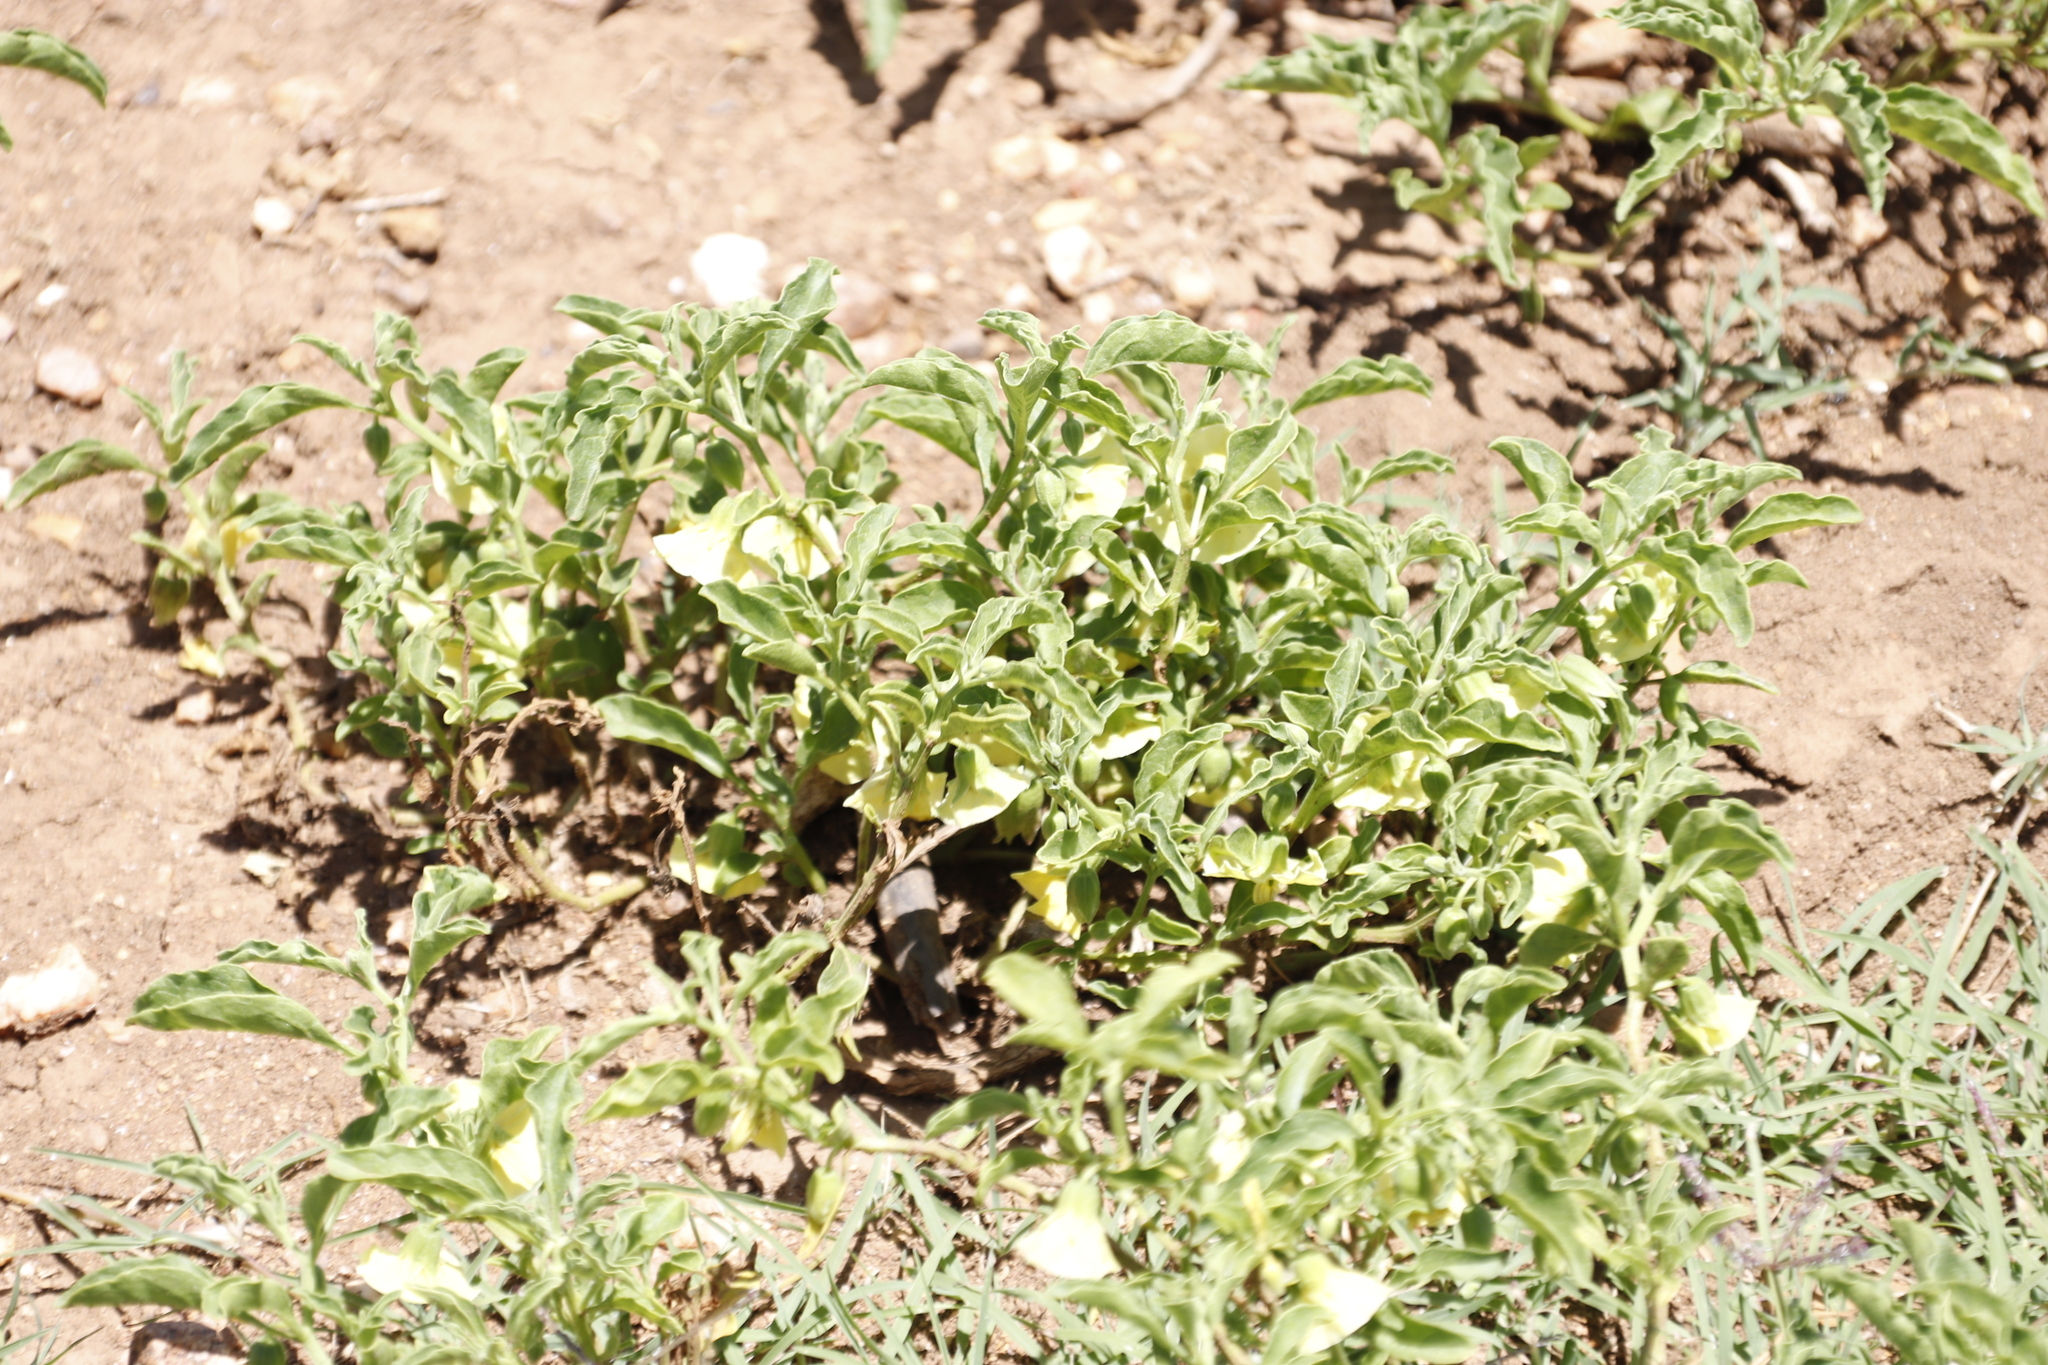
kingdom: Plantae
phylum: Tracheophyta
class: Magnoliopsida
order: Solanales
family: Solanaceae
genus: Physalis
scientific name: Physalis viscosa
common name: Stellate ground-cherry
